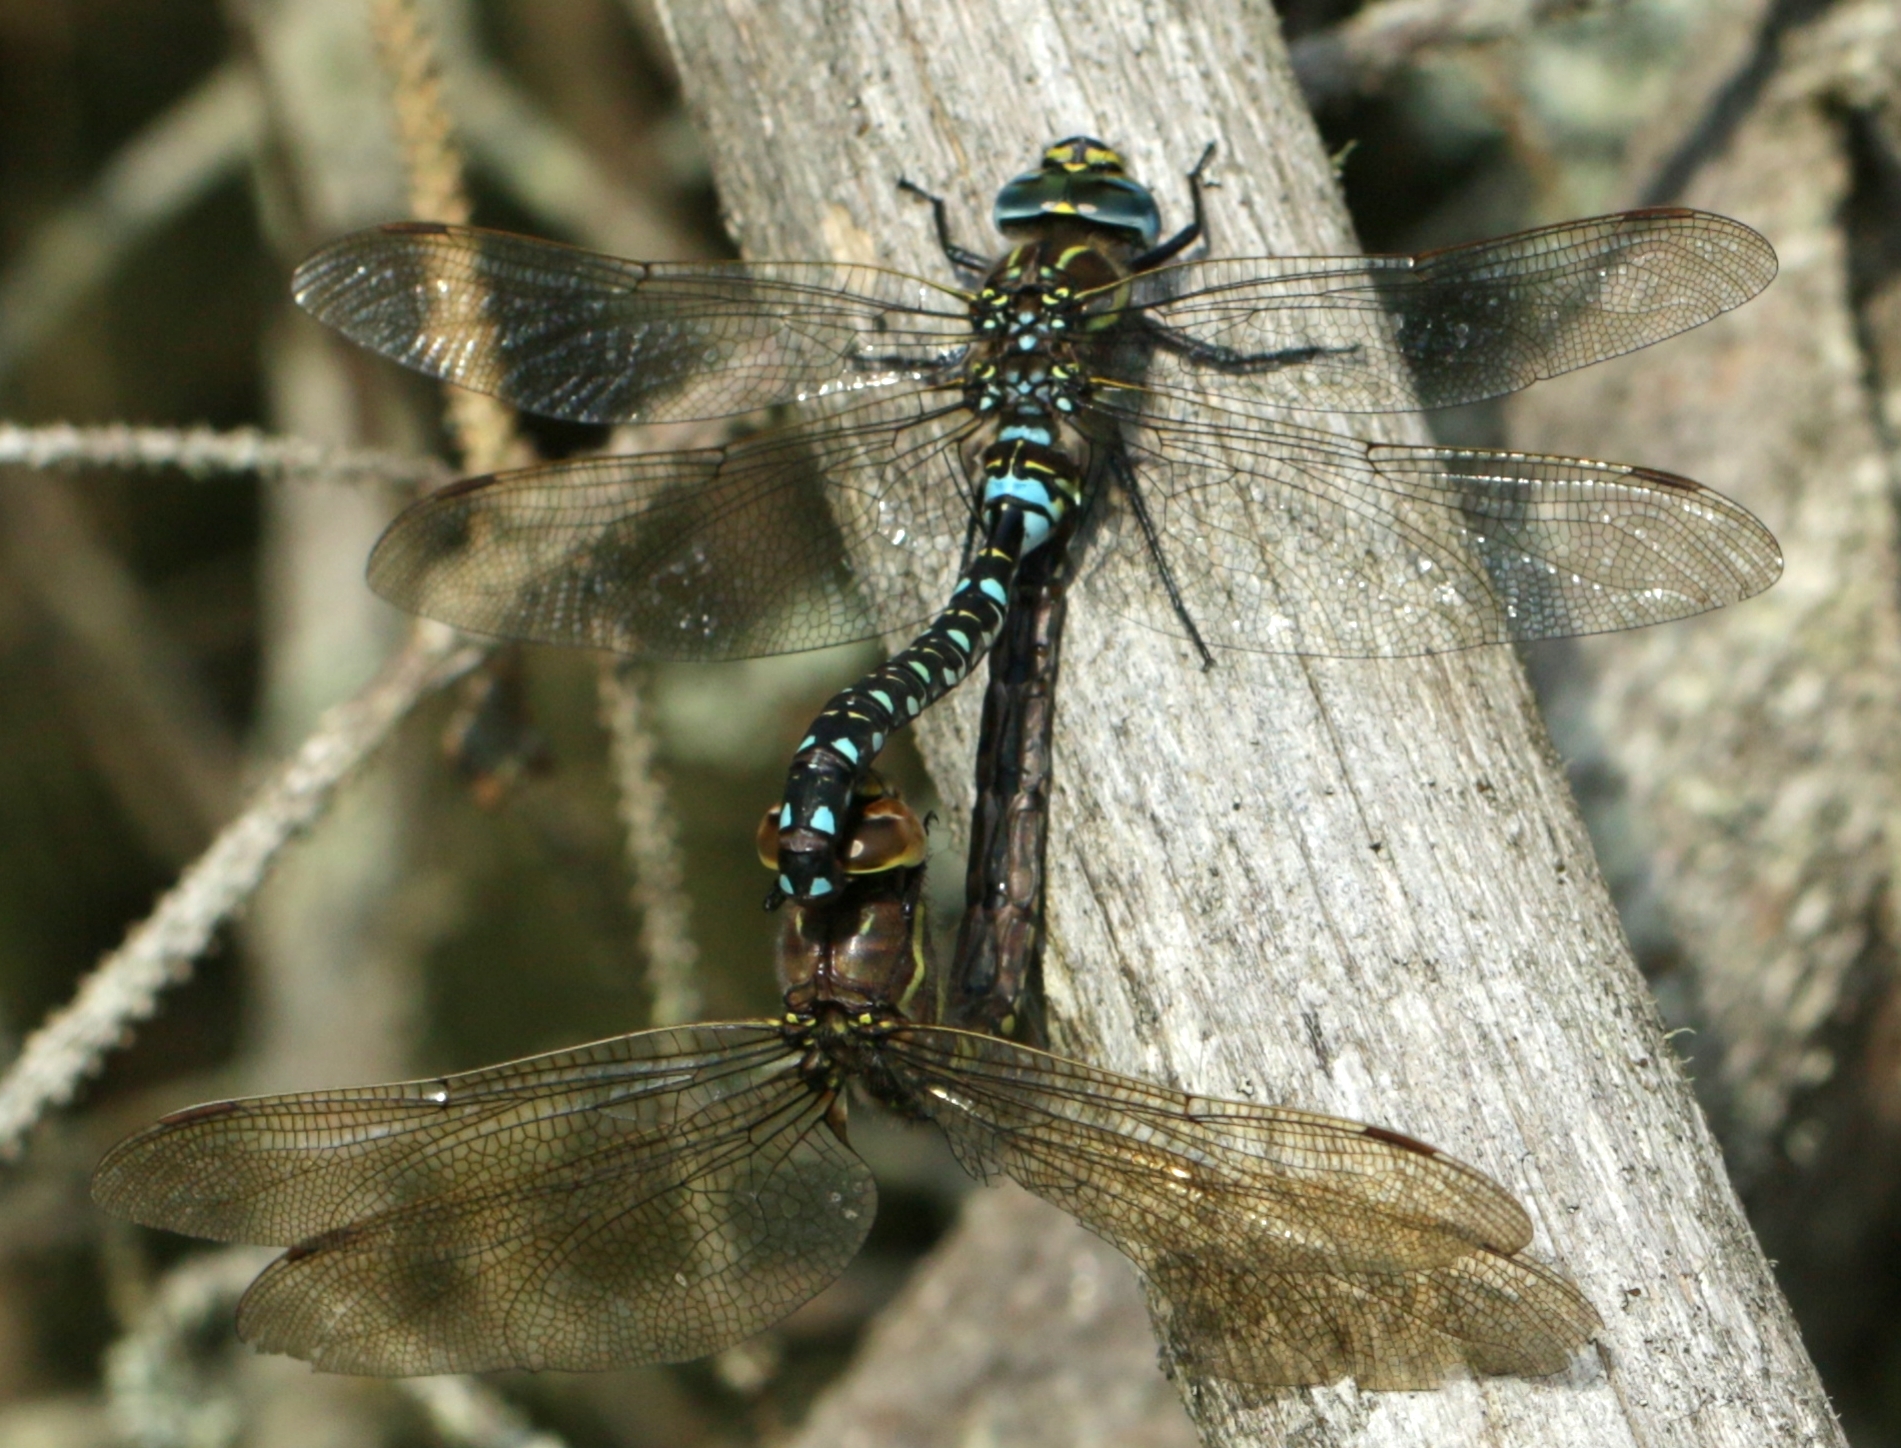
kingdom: Animalia
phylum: Arthropoda
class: Insecta
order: Odonata
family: Aeshnidae
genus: Aeshna
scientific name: Aeshna juncea
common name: Moorland hawker
